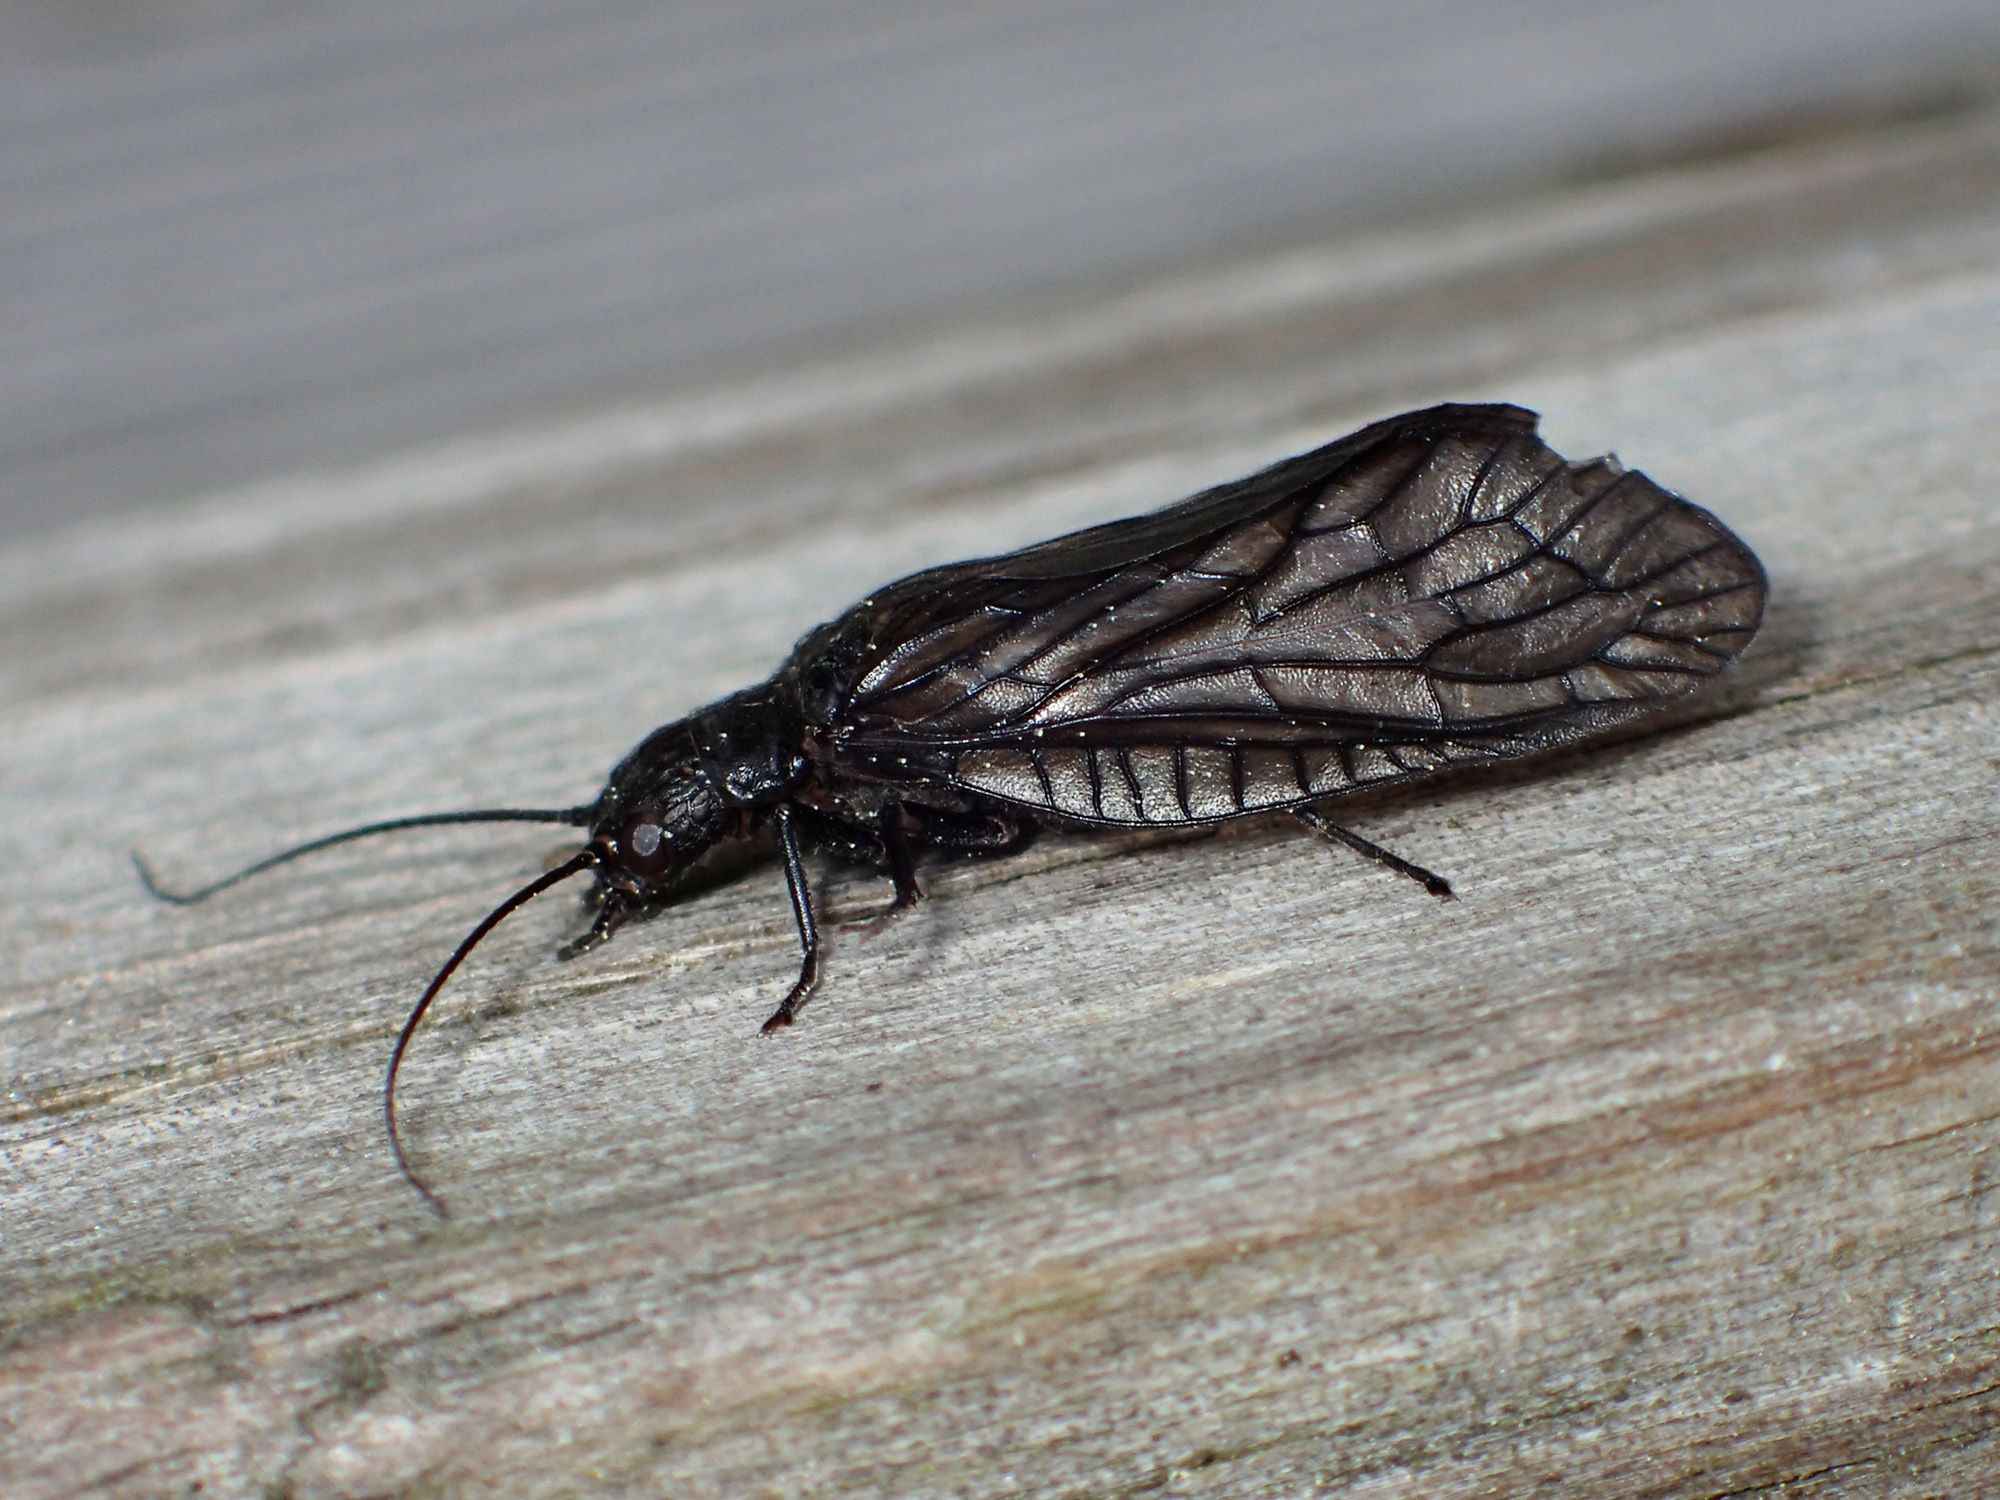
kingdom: Animalia
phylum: Arthropoda
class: Insecta
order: Megaloptera
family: Sialidae
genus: Sialis
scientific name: Sialis
